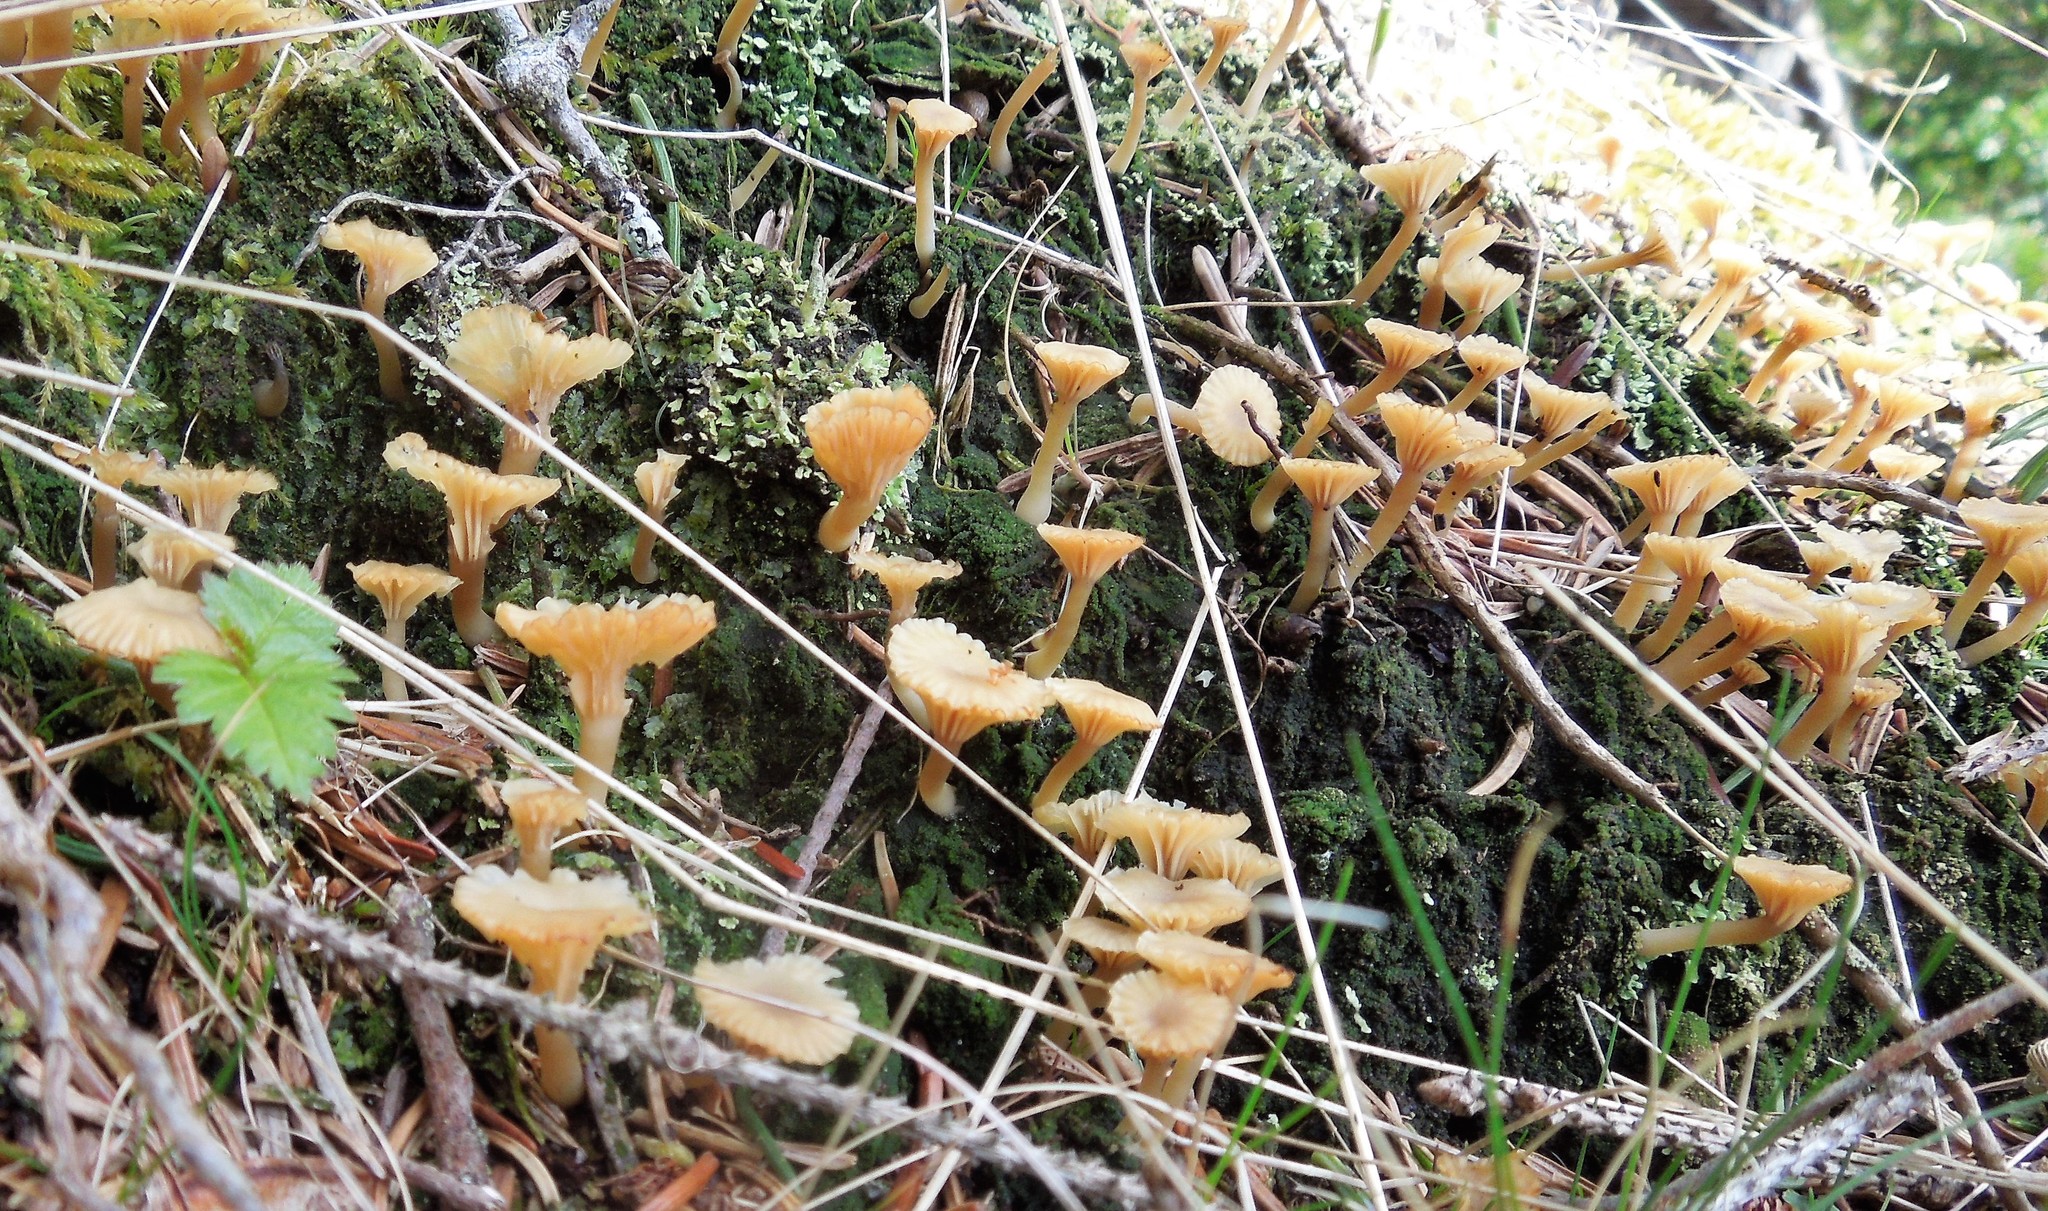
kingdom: Fungi
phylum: Basidiomycota
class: Agaricomycetes
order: Agaricales
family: Hygrophoraceae
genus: Lichenomphalia
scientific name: Lichenomphalia
